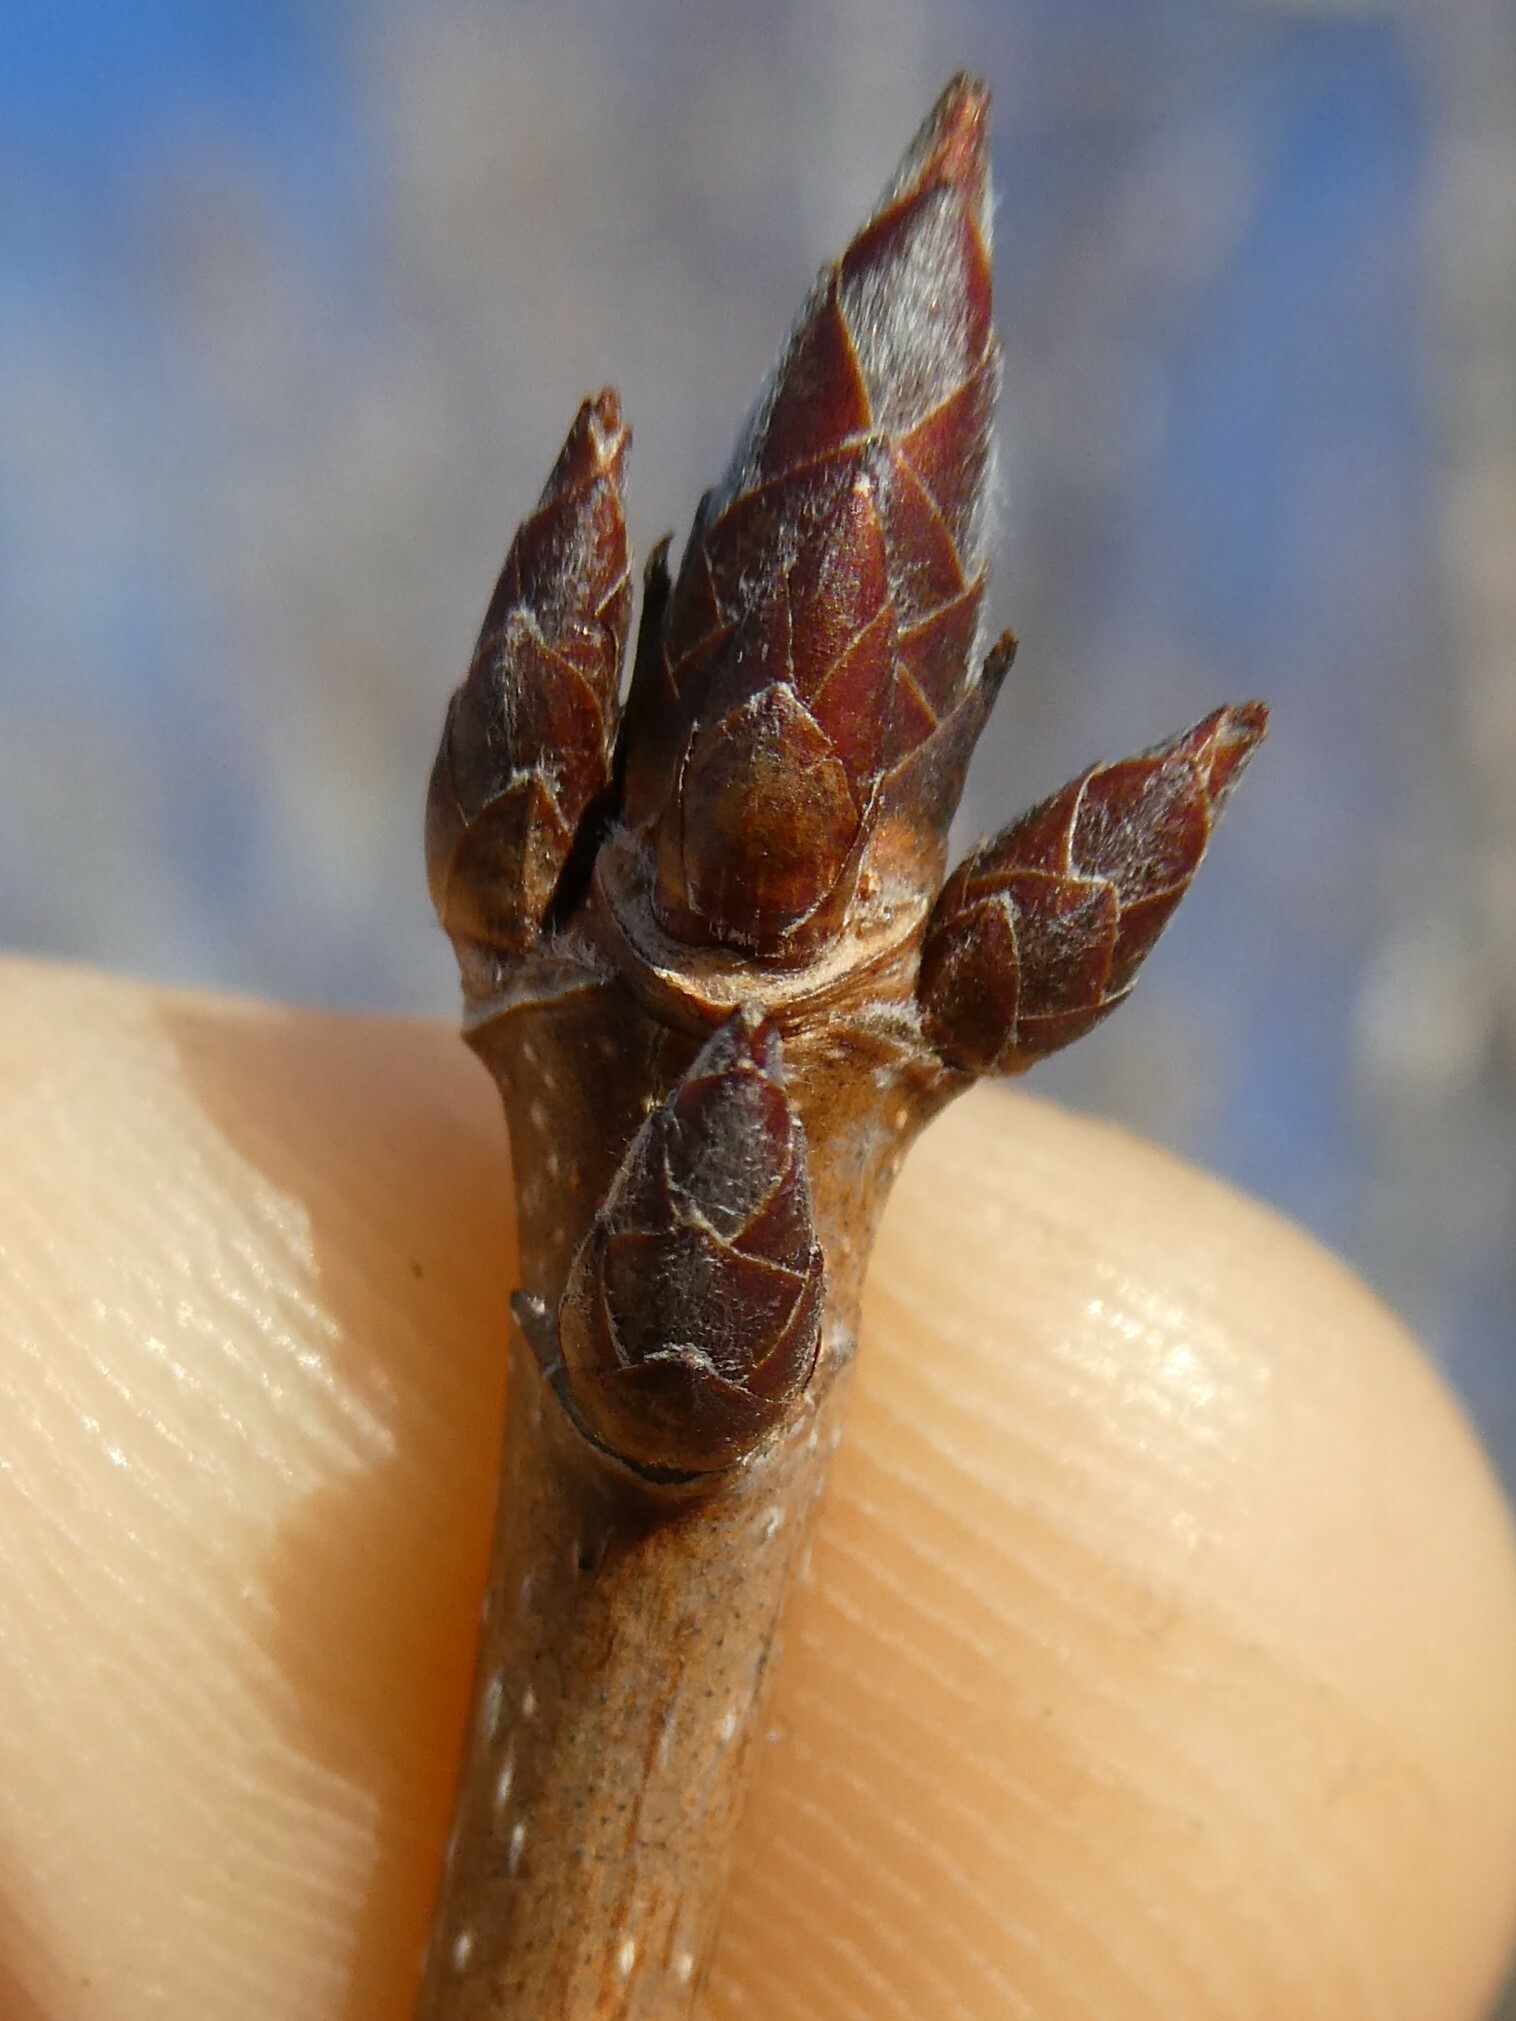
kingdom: Plantae
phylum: Tracheophyta
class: Magnoliopsida
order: Sapindales
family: Sapindaceae
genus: Acer
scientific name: Acer saccharum
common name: Sugar maple
